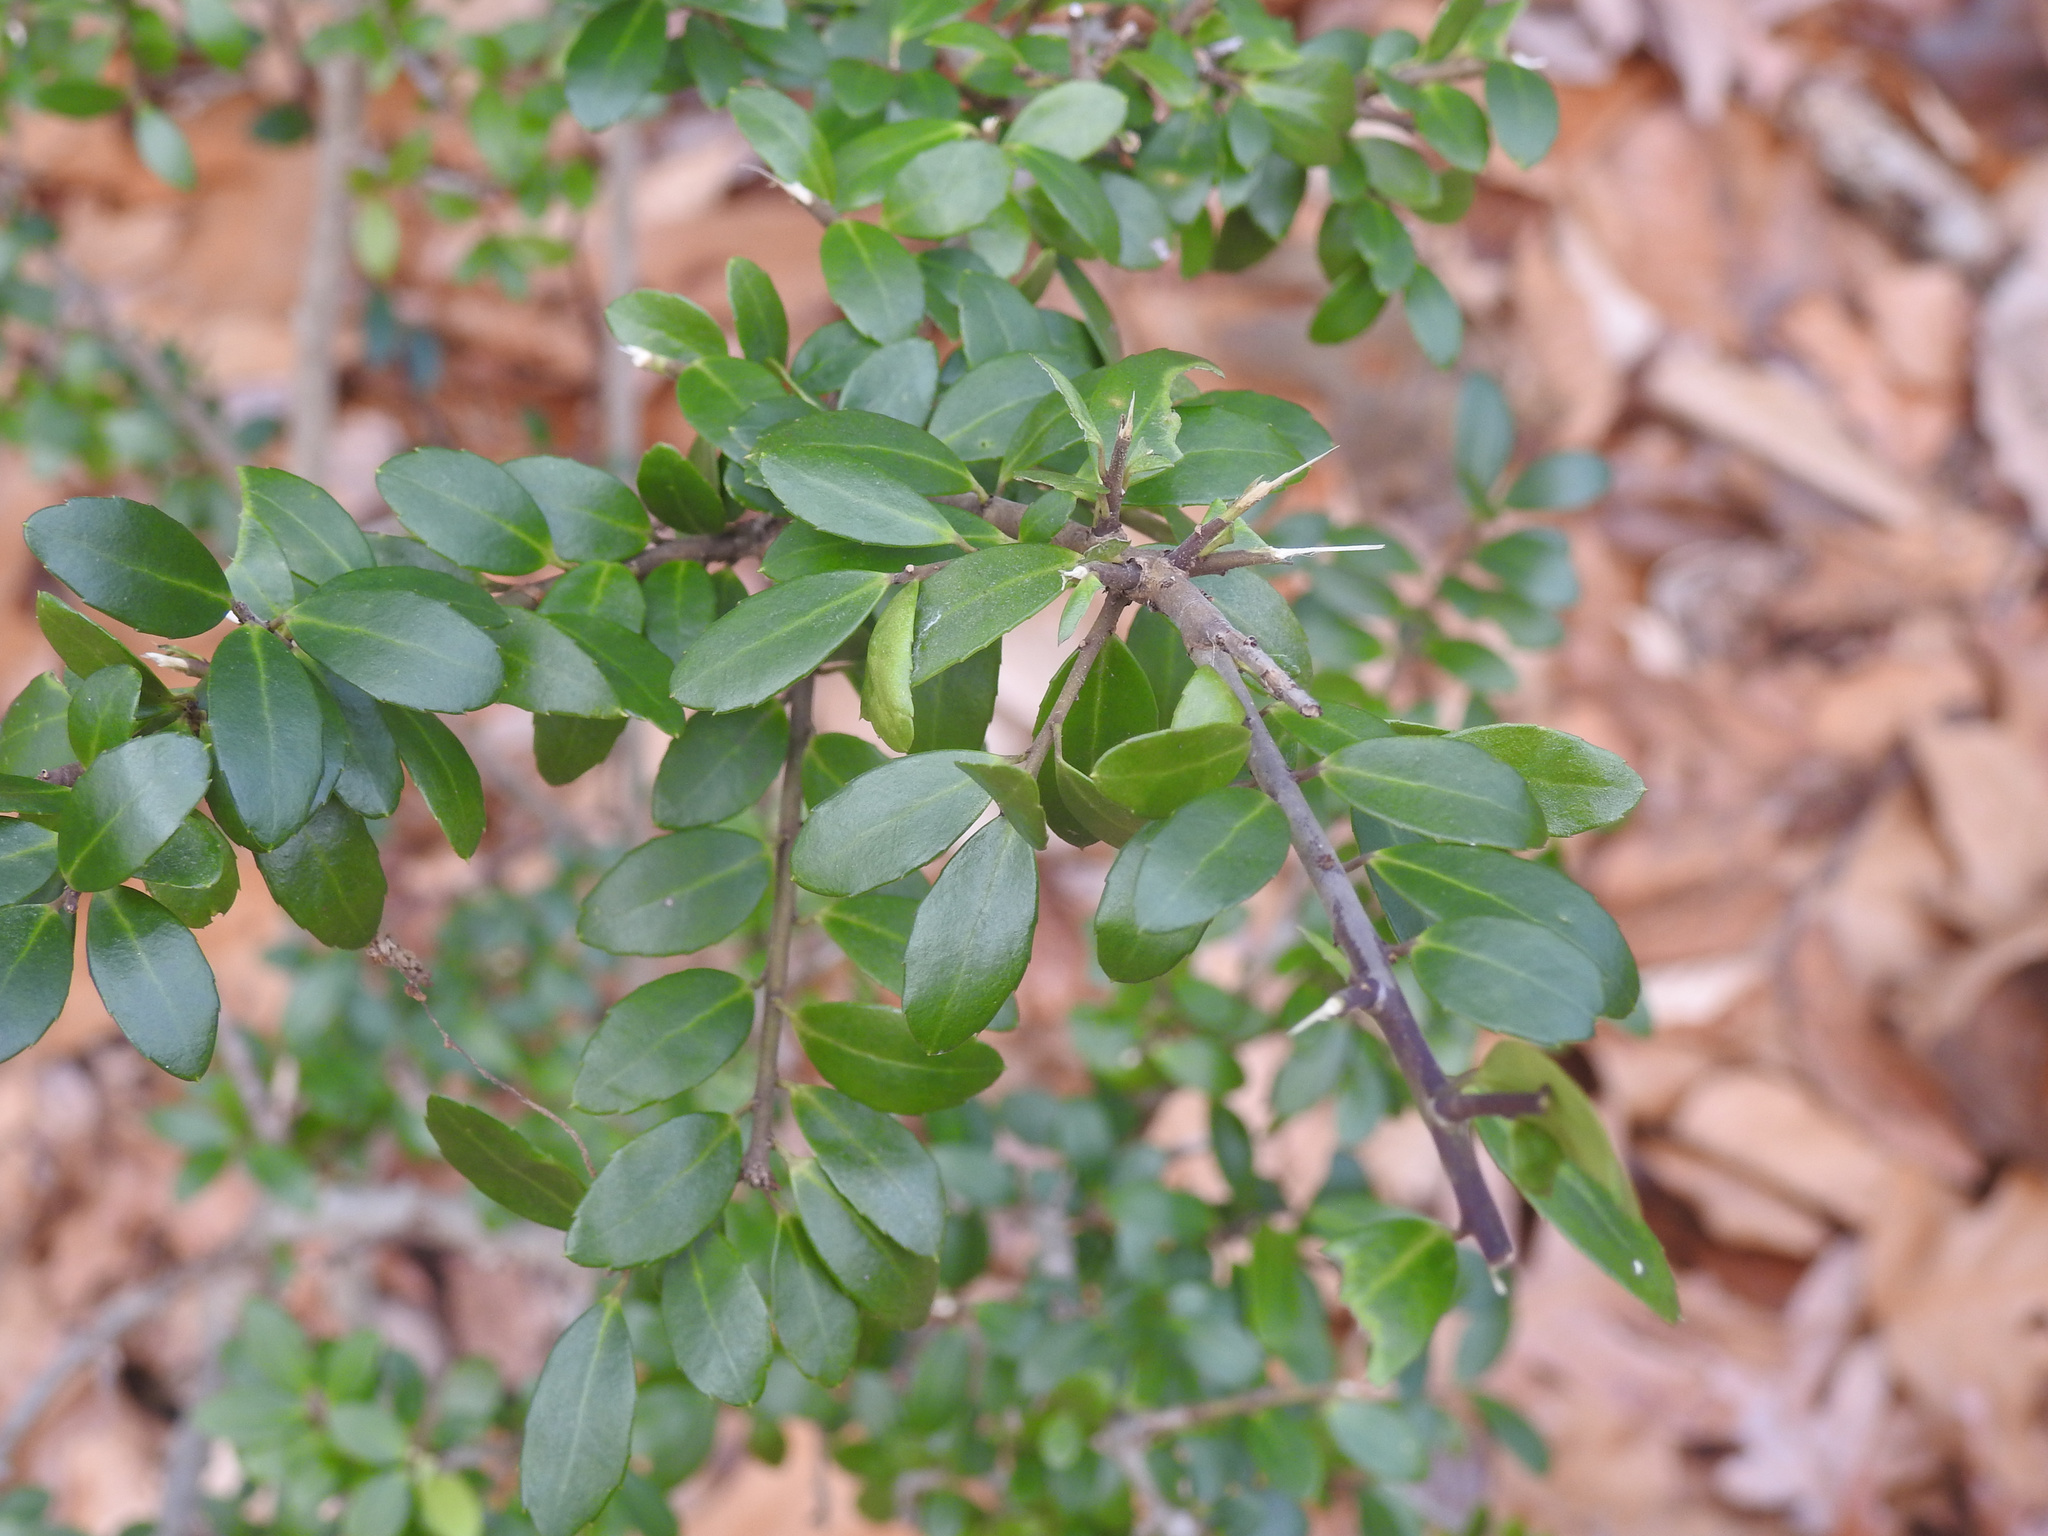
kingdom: Plantae
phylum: Tracheophyta
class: Magnoliopsida
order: Aquifoliales
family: Aquifoliaceae
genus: Ilex
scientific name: Ilex crenata
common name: Japanese holly
